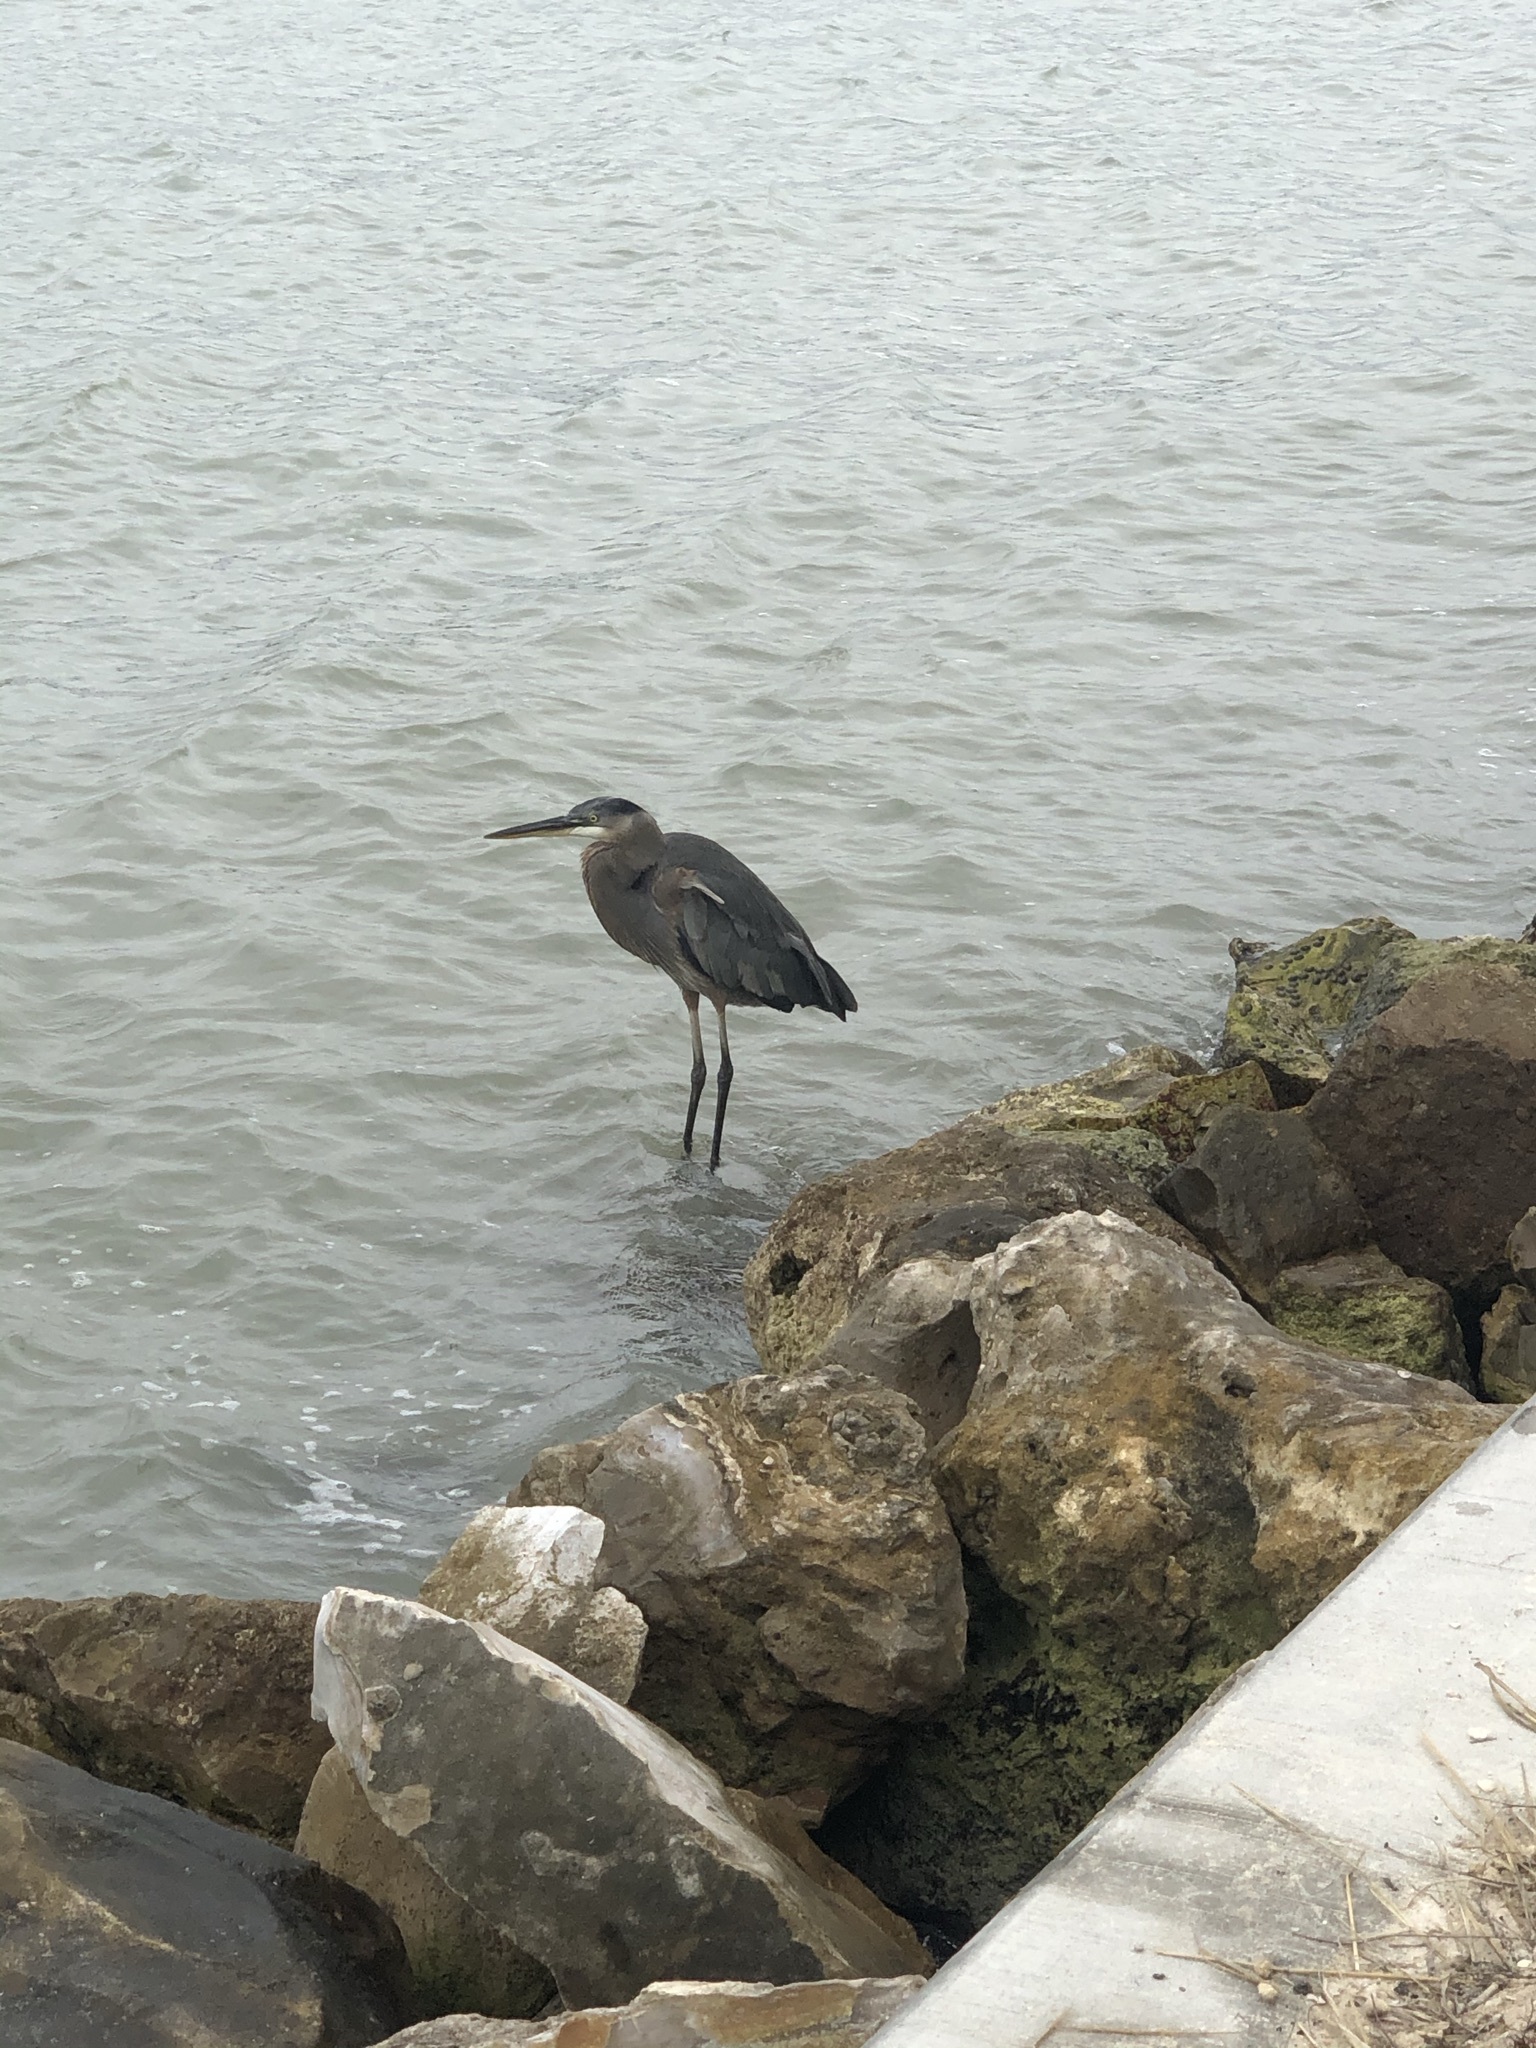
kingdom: Animalia
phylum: Chordata
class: Aves
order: Pelecaniformes
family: Ardeidae
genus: Ardea
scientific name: Ardea herodias
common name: Great blue heron
